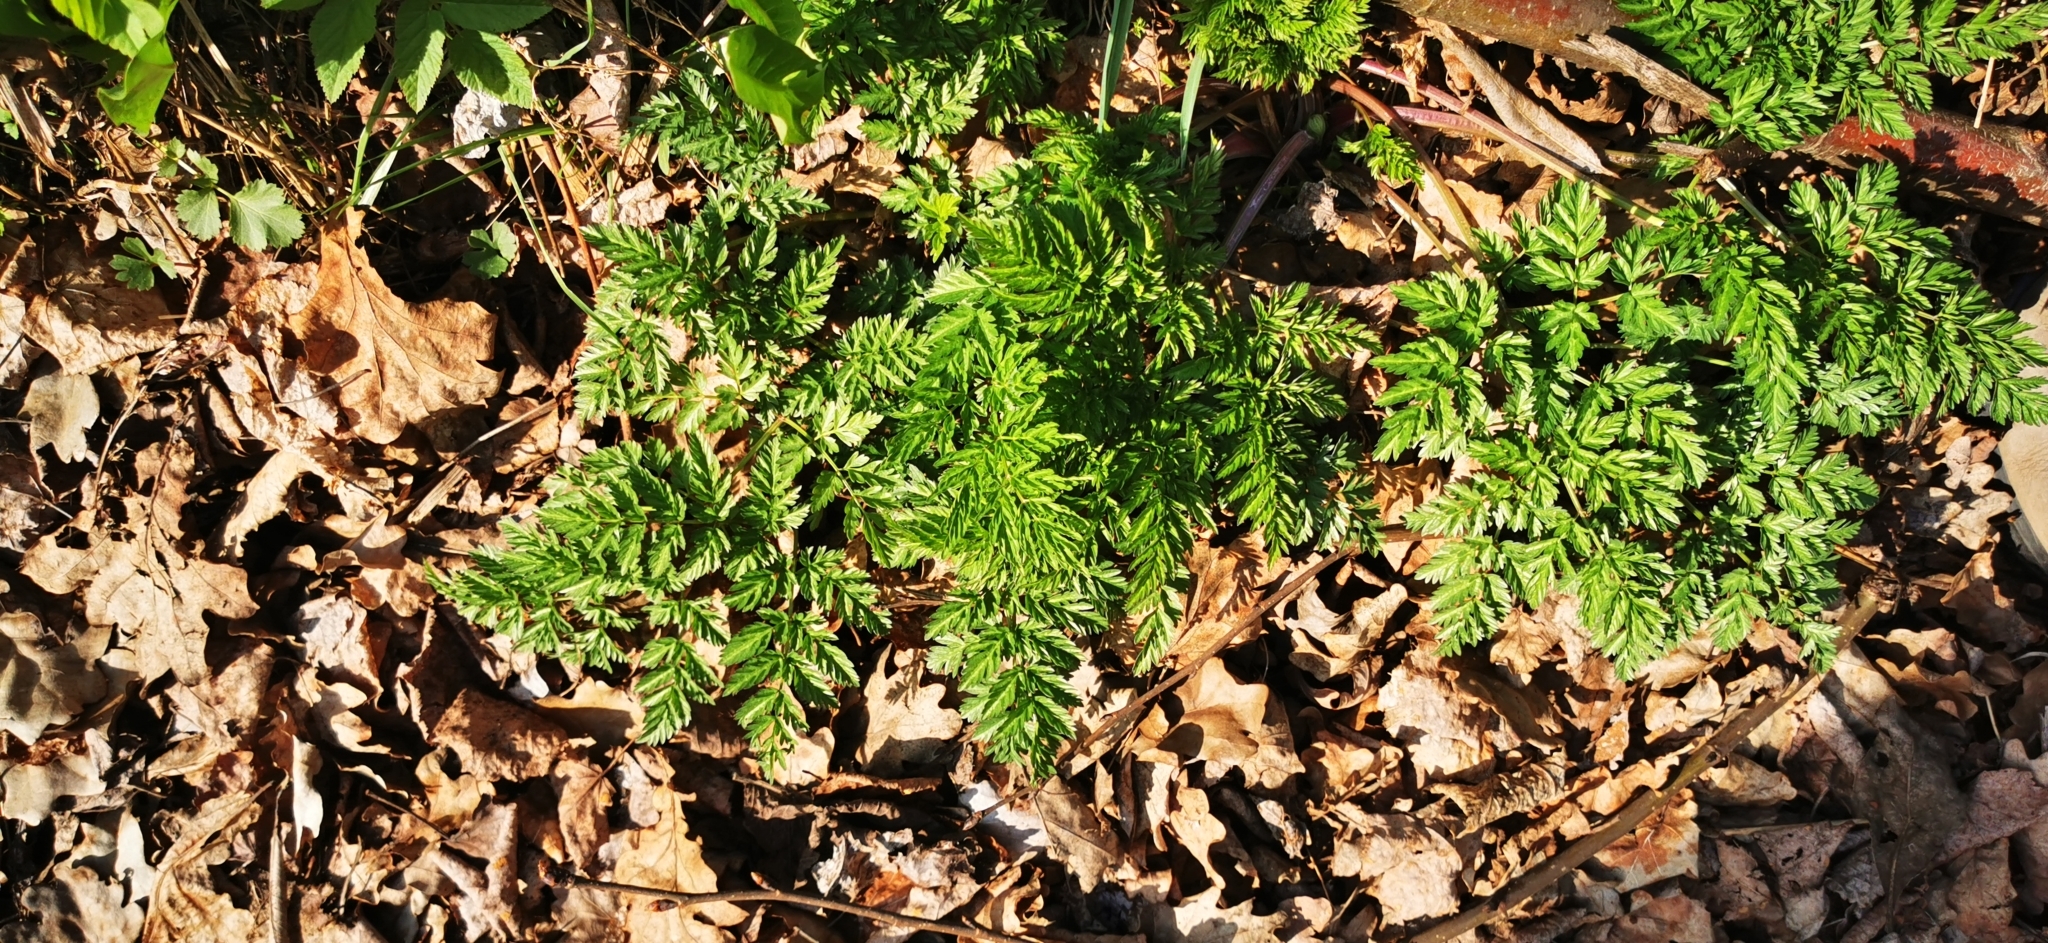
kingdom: Plantae
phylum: Tracheophyta
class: Magnoliopsida
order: Apiales
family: Apiaceae
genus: Anthriscus
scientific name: Anthriscus sylvestris
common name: Cow parsley
